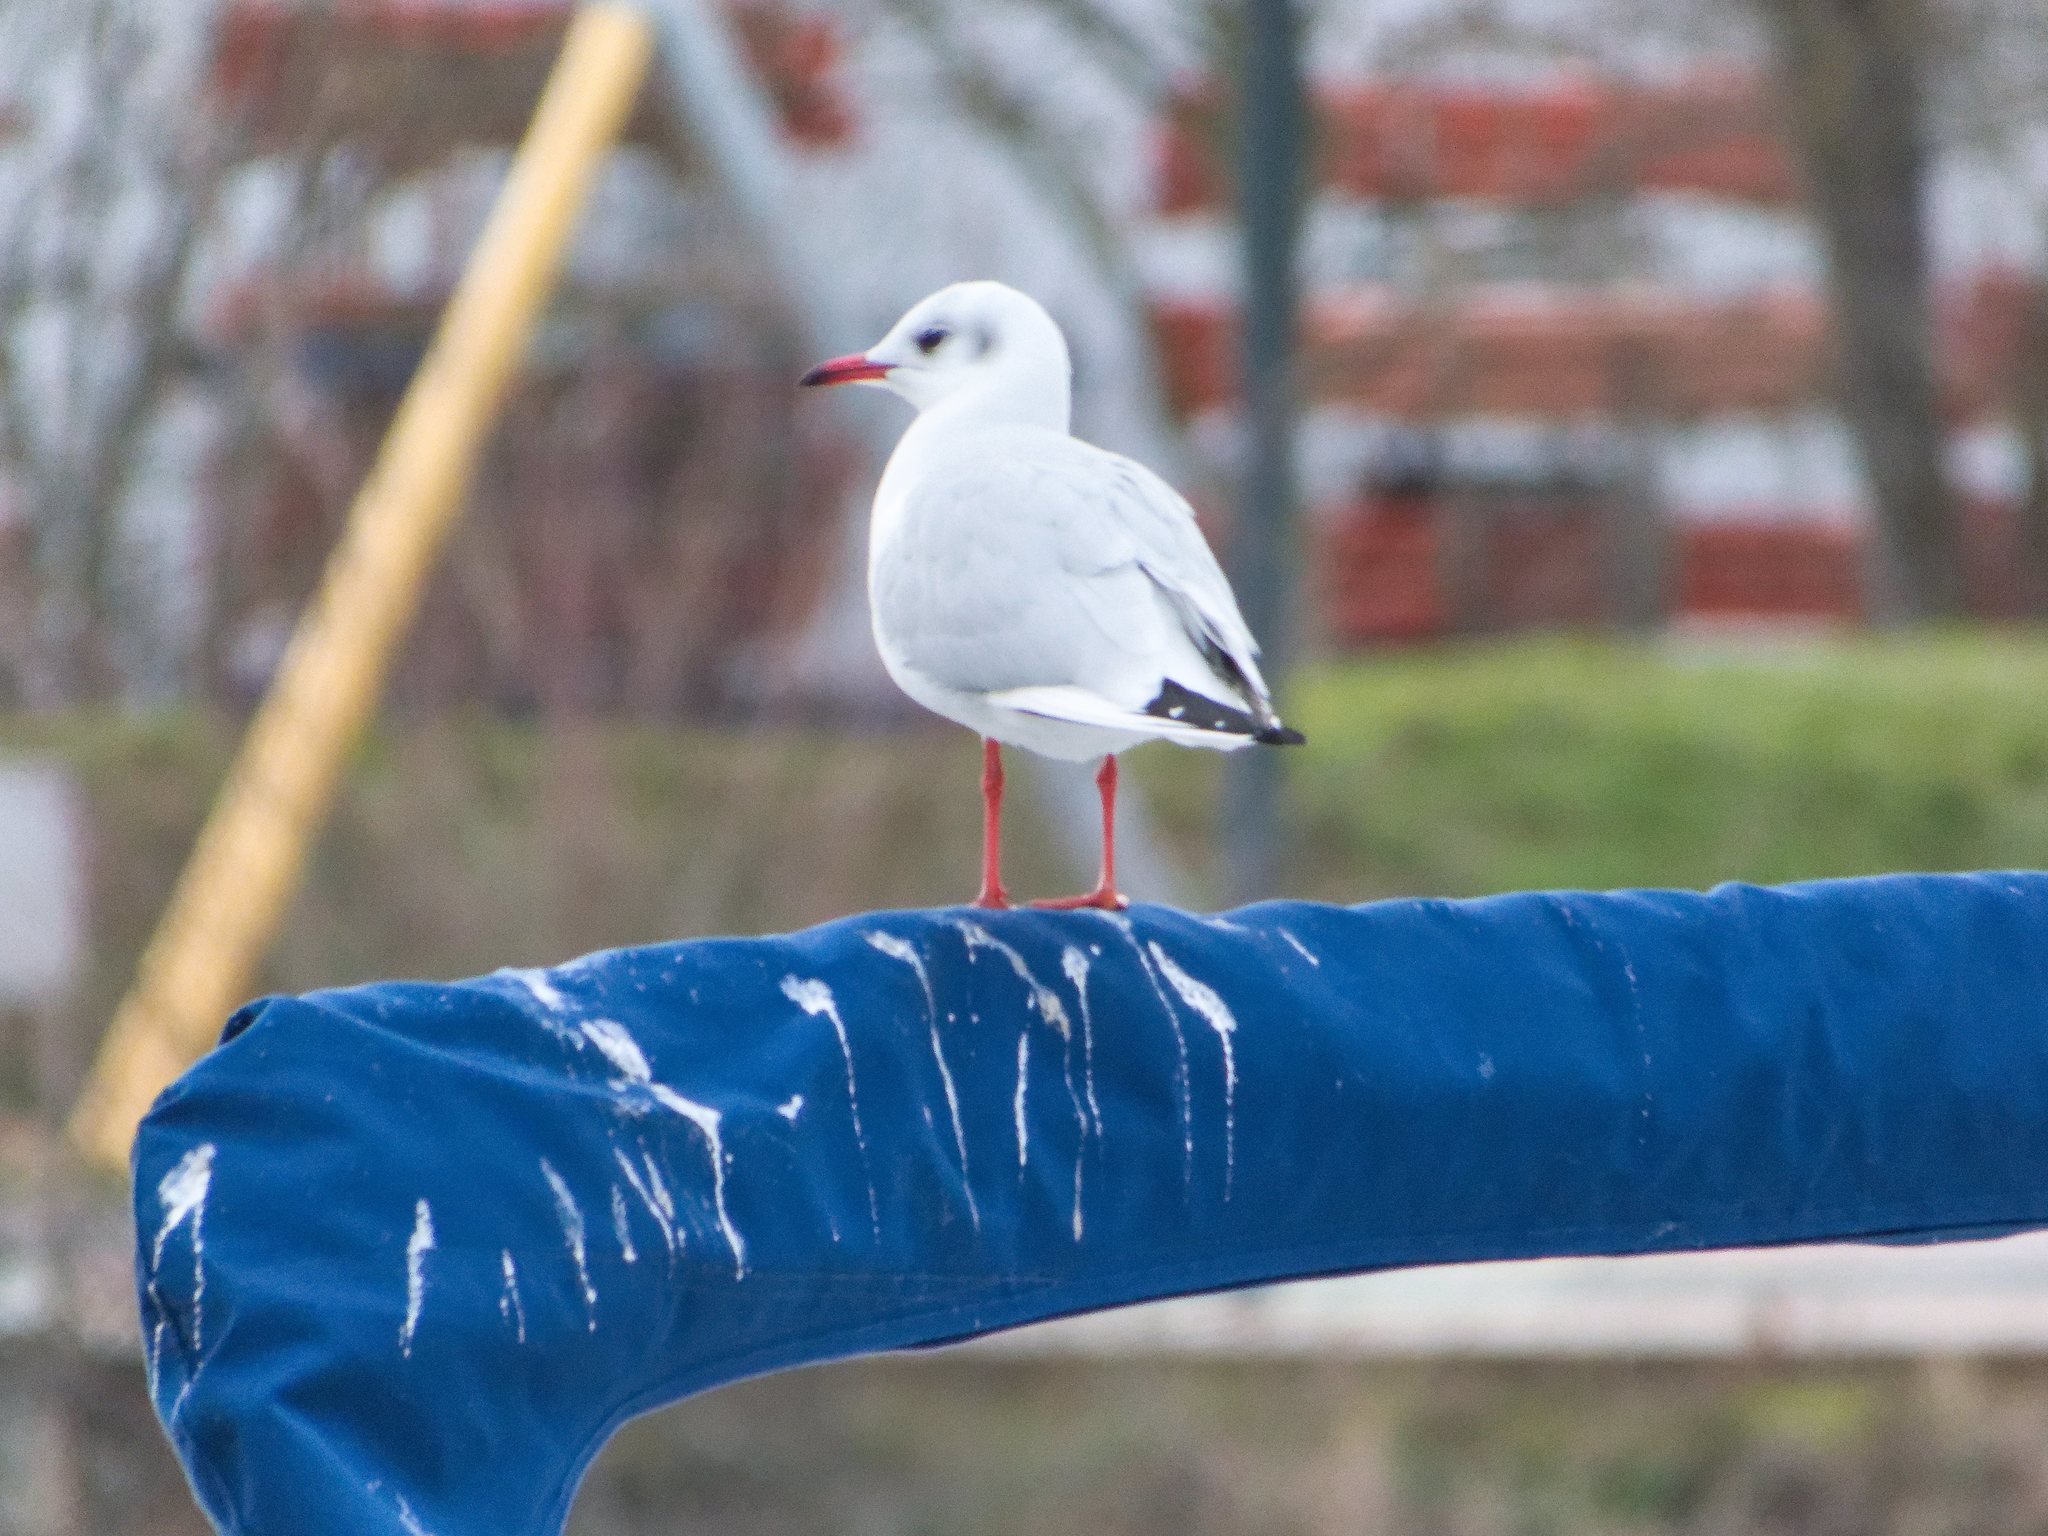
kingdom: Animalia
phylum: Chordata
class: Aves
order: Charadriiformes
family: Laridae
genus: Chroicocephalus
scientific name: Chroicocephalus ridibundus
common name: Black-headed gull
